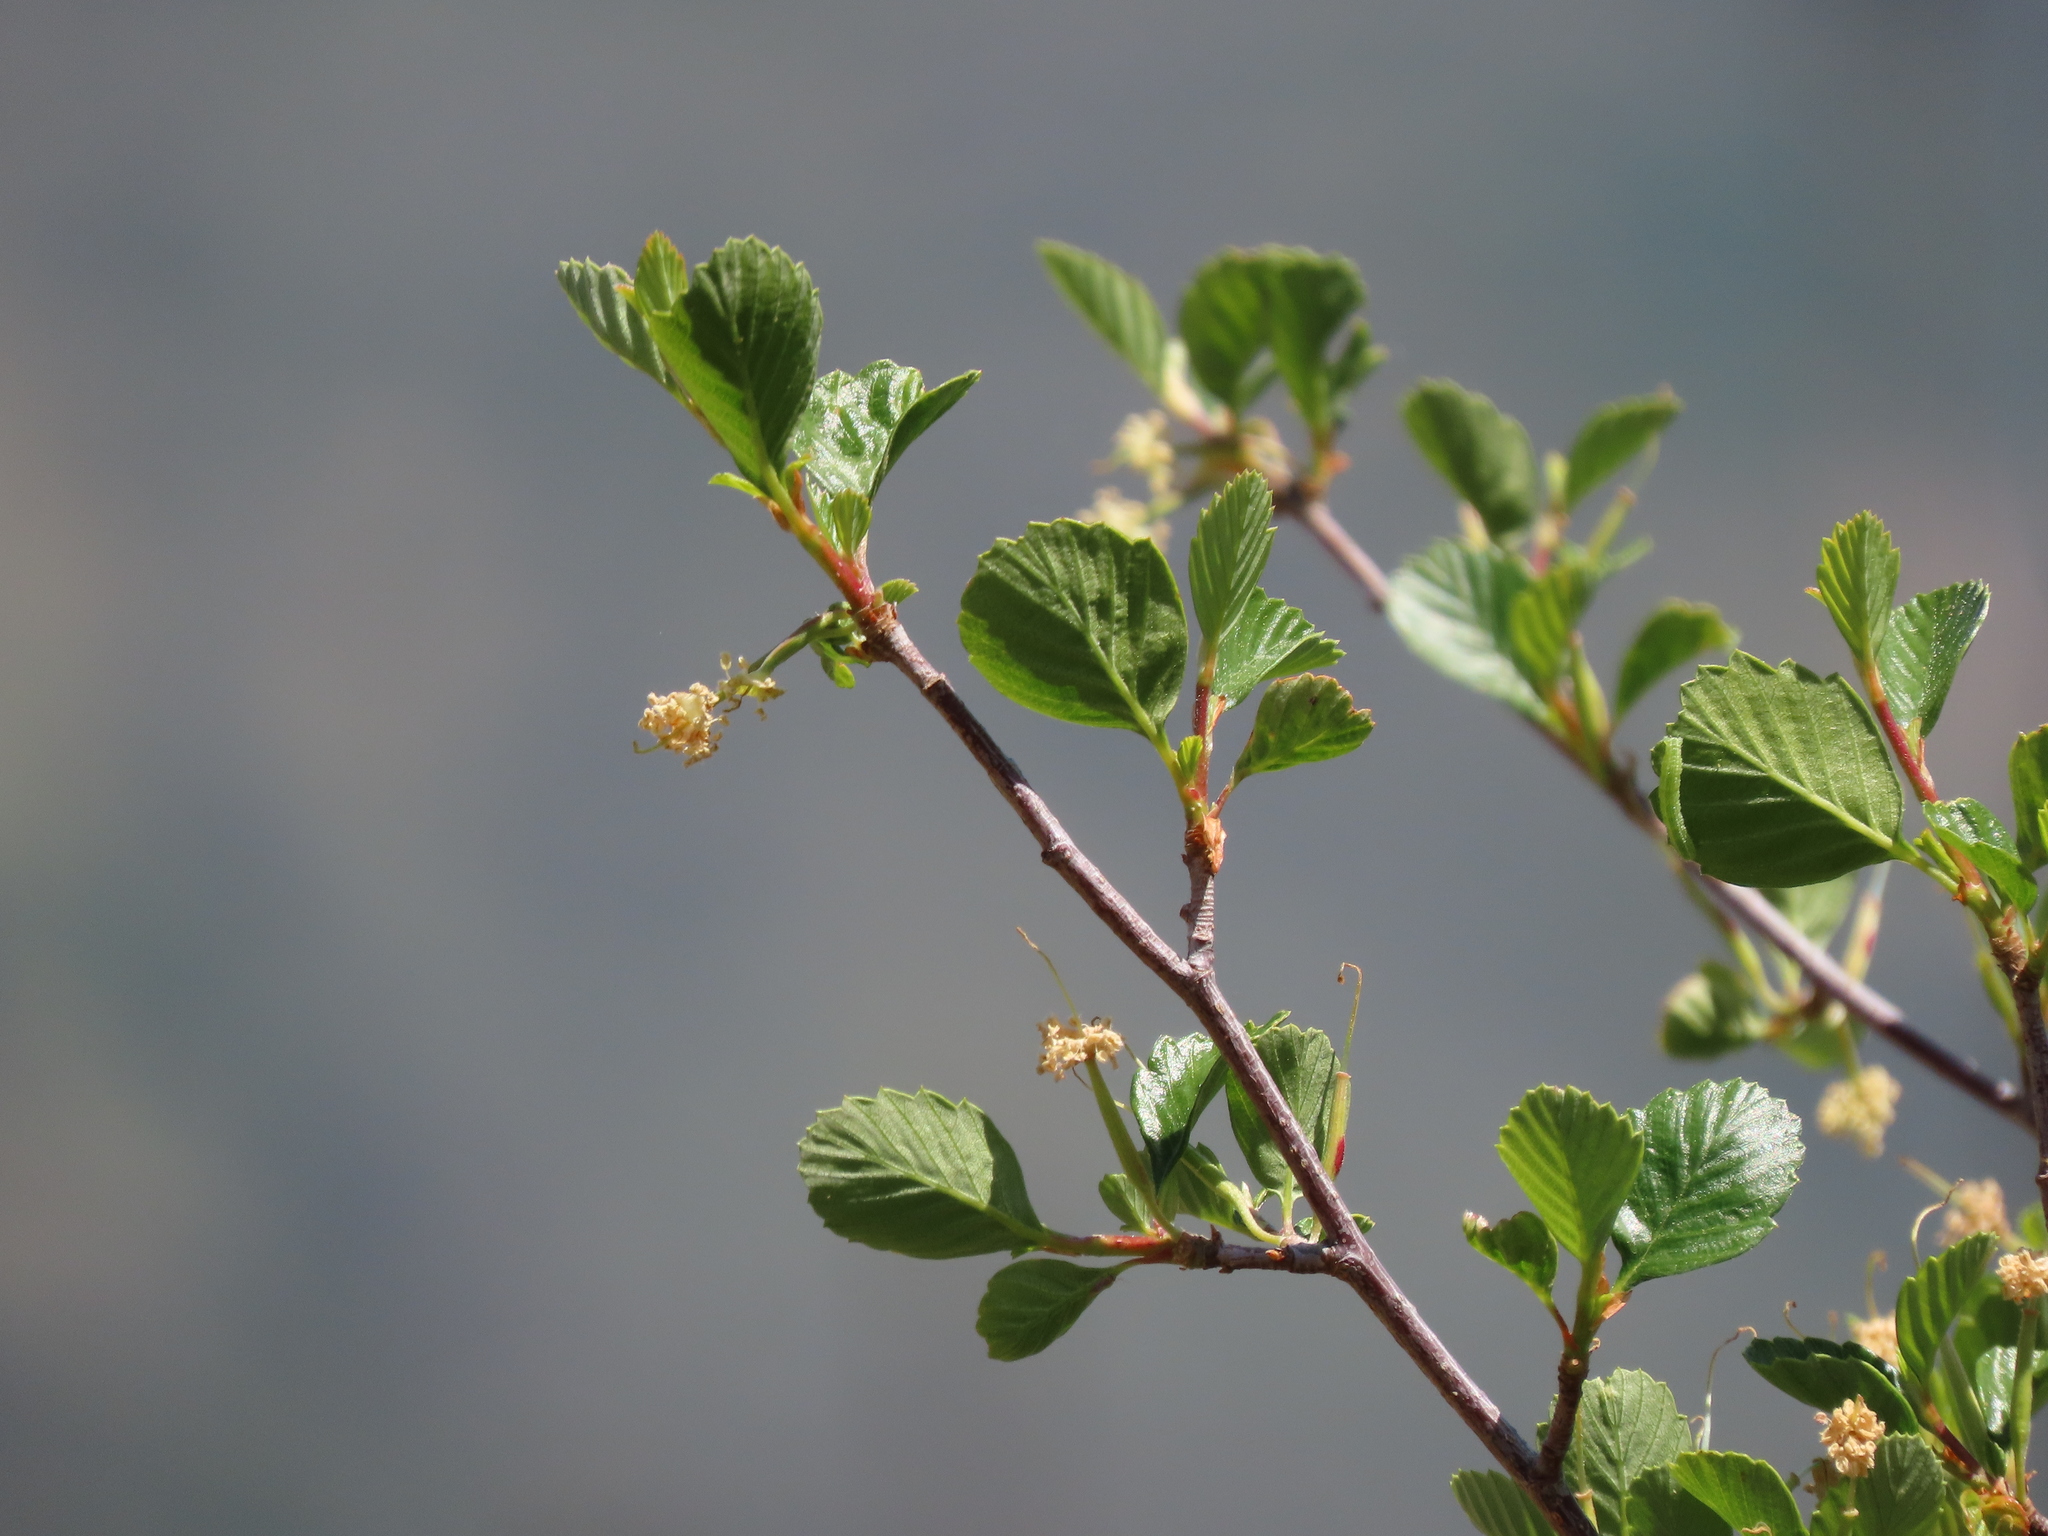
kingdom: Plantae
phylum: Tracheophyta
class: Magnoliopsida
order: Rosales
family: Rosaceae
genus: Cercocarpus
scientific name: Cercocarpus betuloides
